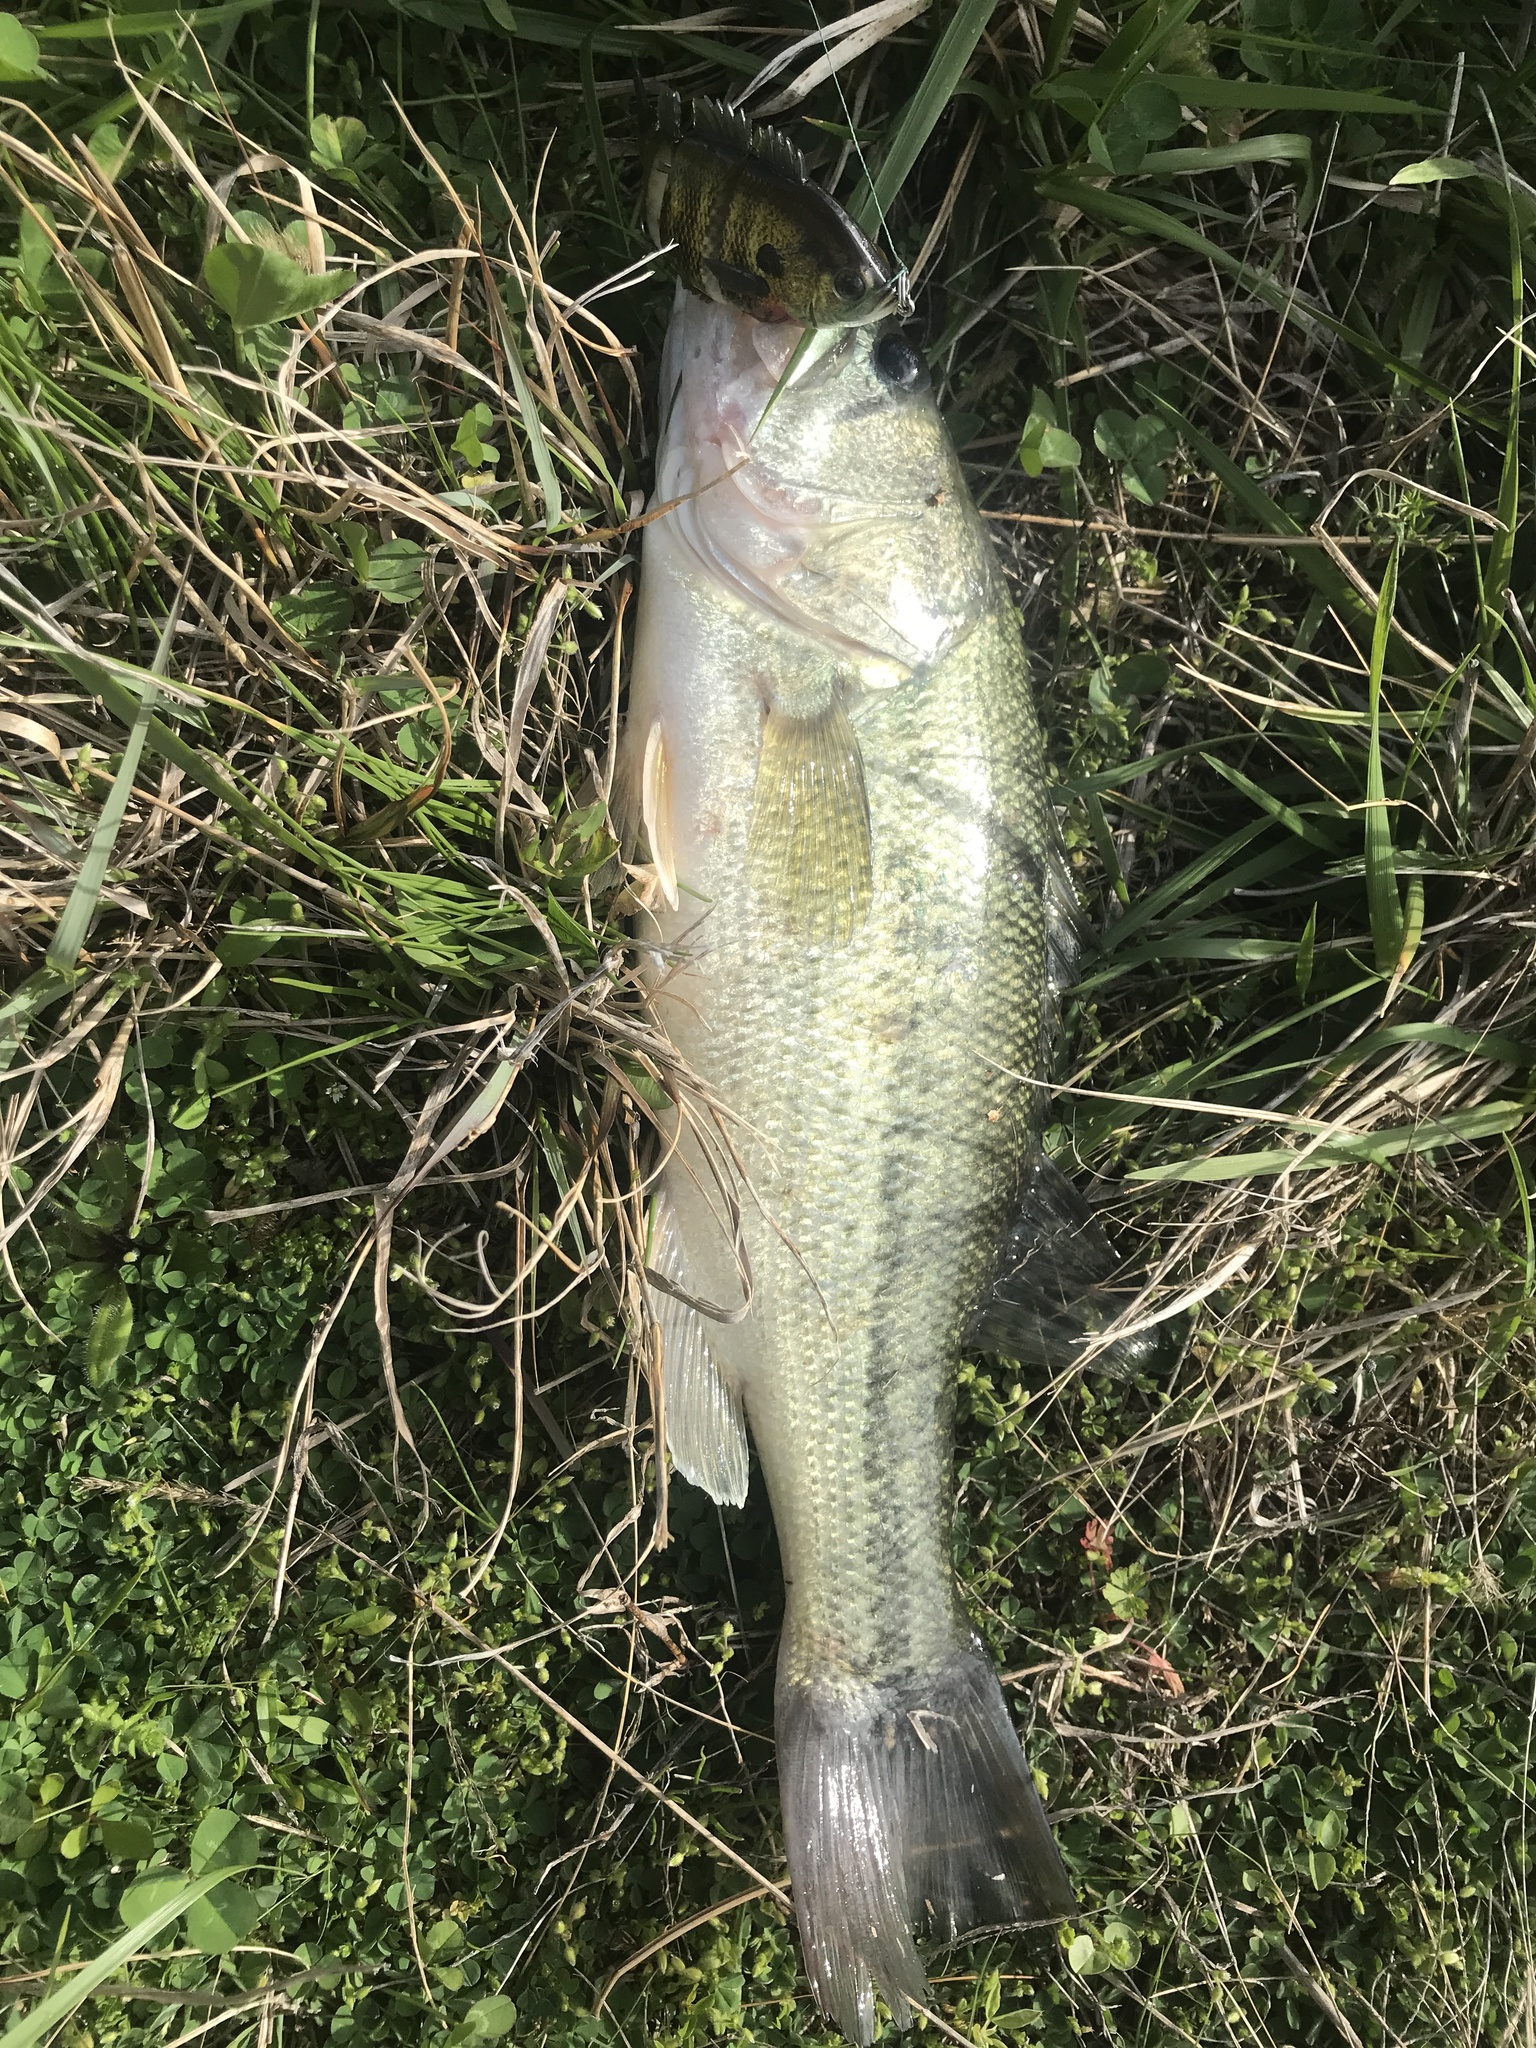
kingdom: Animalia
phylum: Chordata
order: Perciformes
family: Centrarchidae
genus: Micropterus
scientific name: Micropterus
